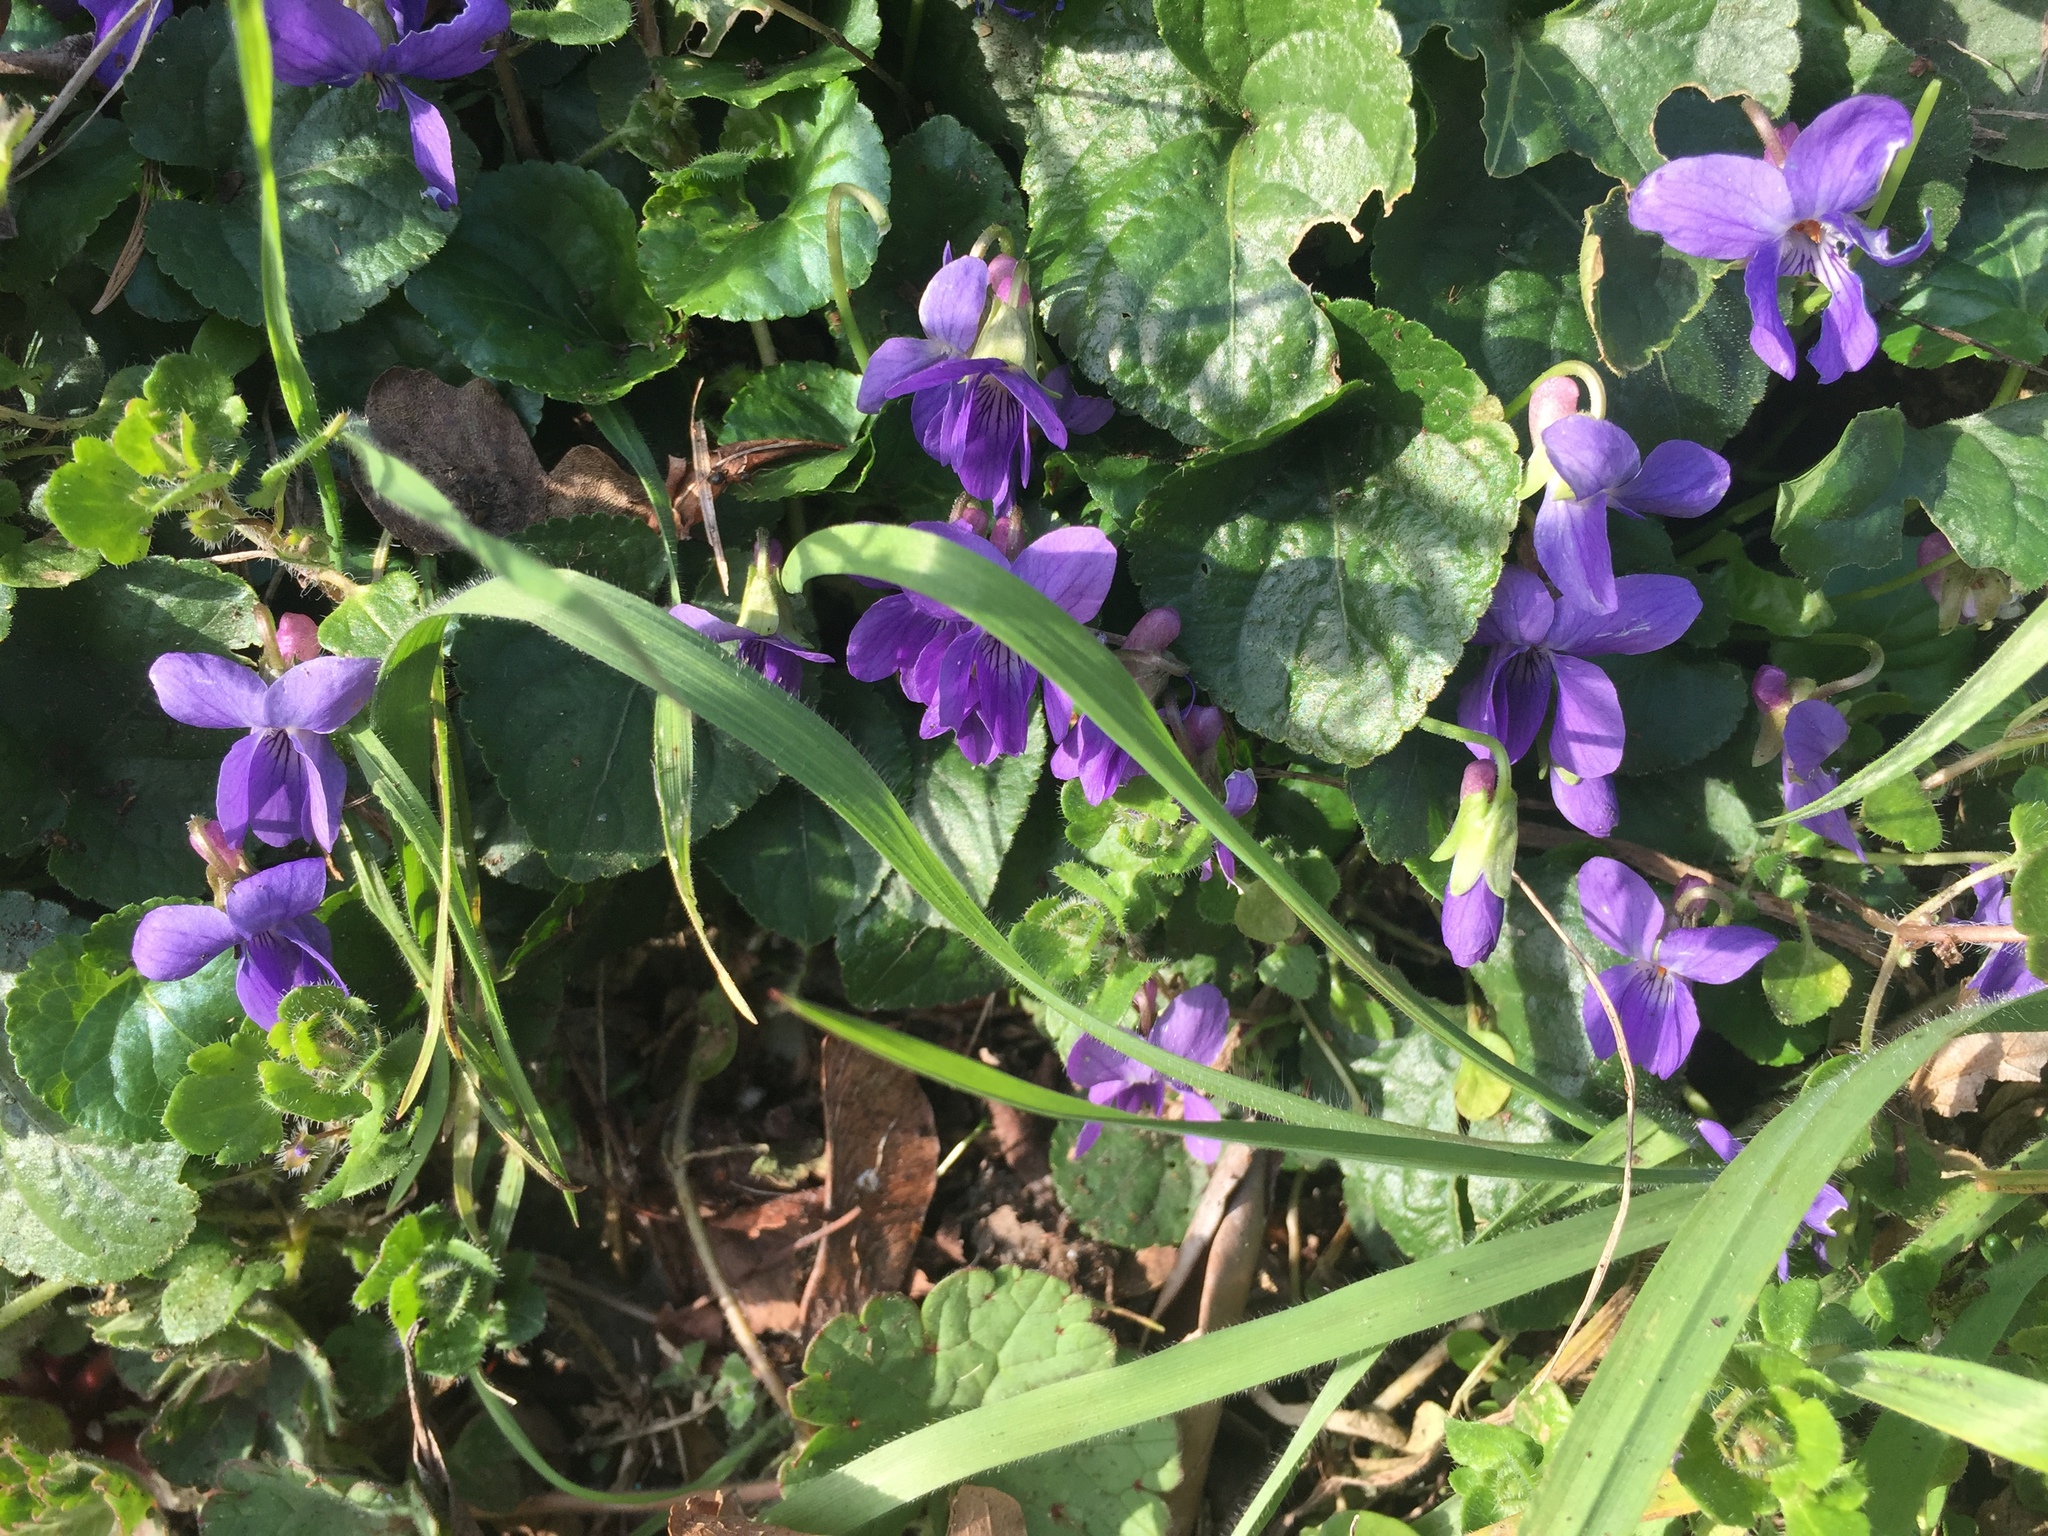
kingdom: Plantae
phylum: Tracheophyta
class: Magnoliopsida
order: Malpighiales
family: Violaceae
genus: Viola
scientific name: Viola reichenbachiana
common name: Early dog-violet
